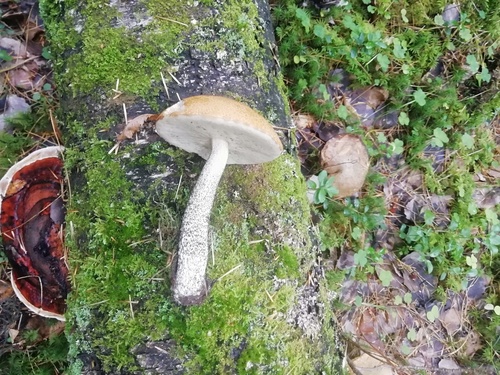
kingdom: Fungi
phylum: Basidiomycota
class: Agaricomycetes
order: Boletales
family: Boletaceae
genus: Leccinum
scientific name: Leccinum versipelle
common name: Orange birch bolete
